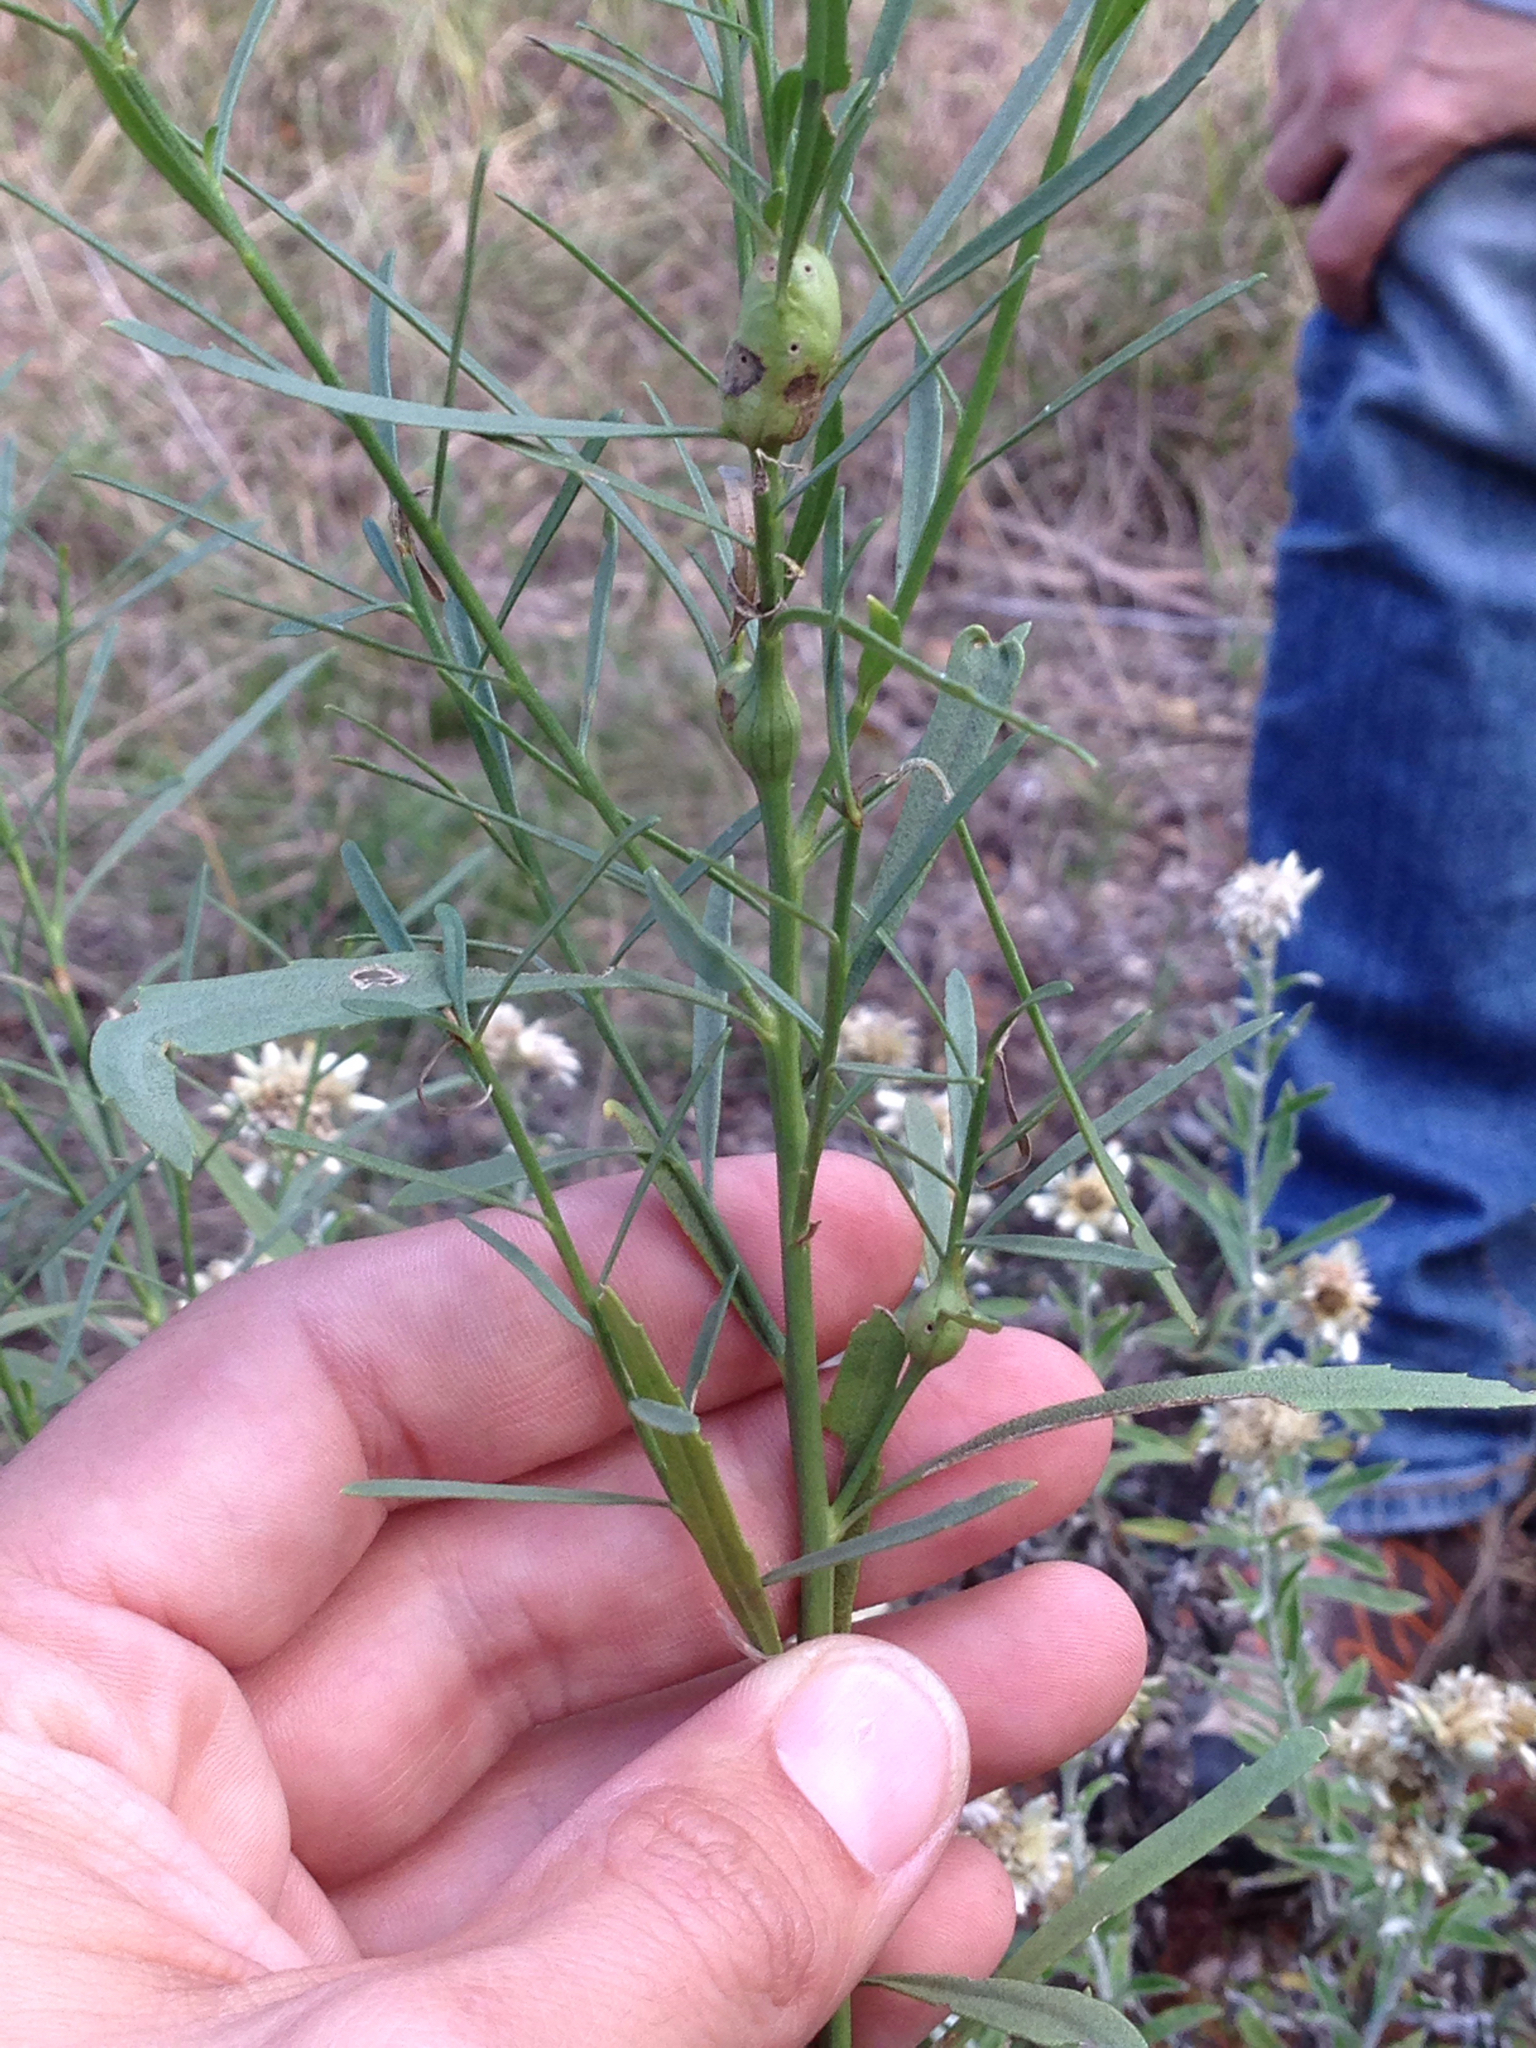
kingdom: Plantae
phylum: Tracheophyta
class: Magnoliopsida
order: Asterales
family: Asteraceae
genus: Baccharis
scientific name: Baccharis neglecta
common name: Roosevelt-weed
